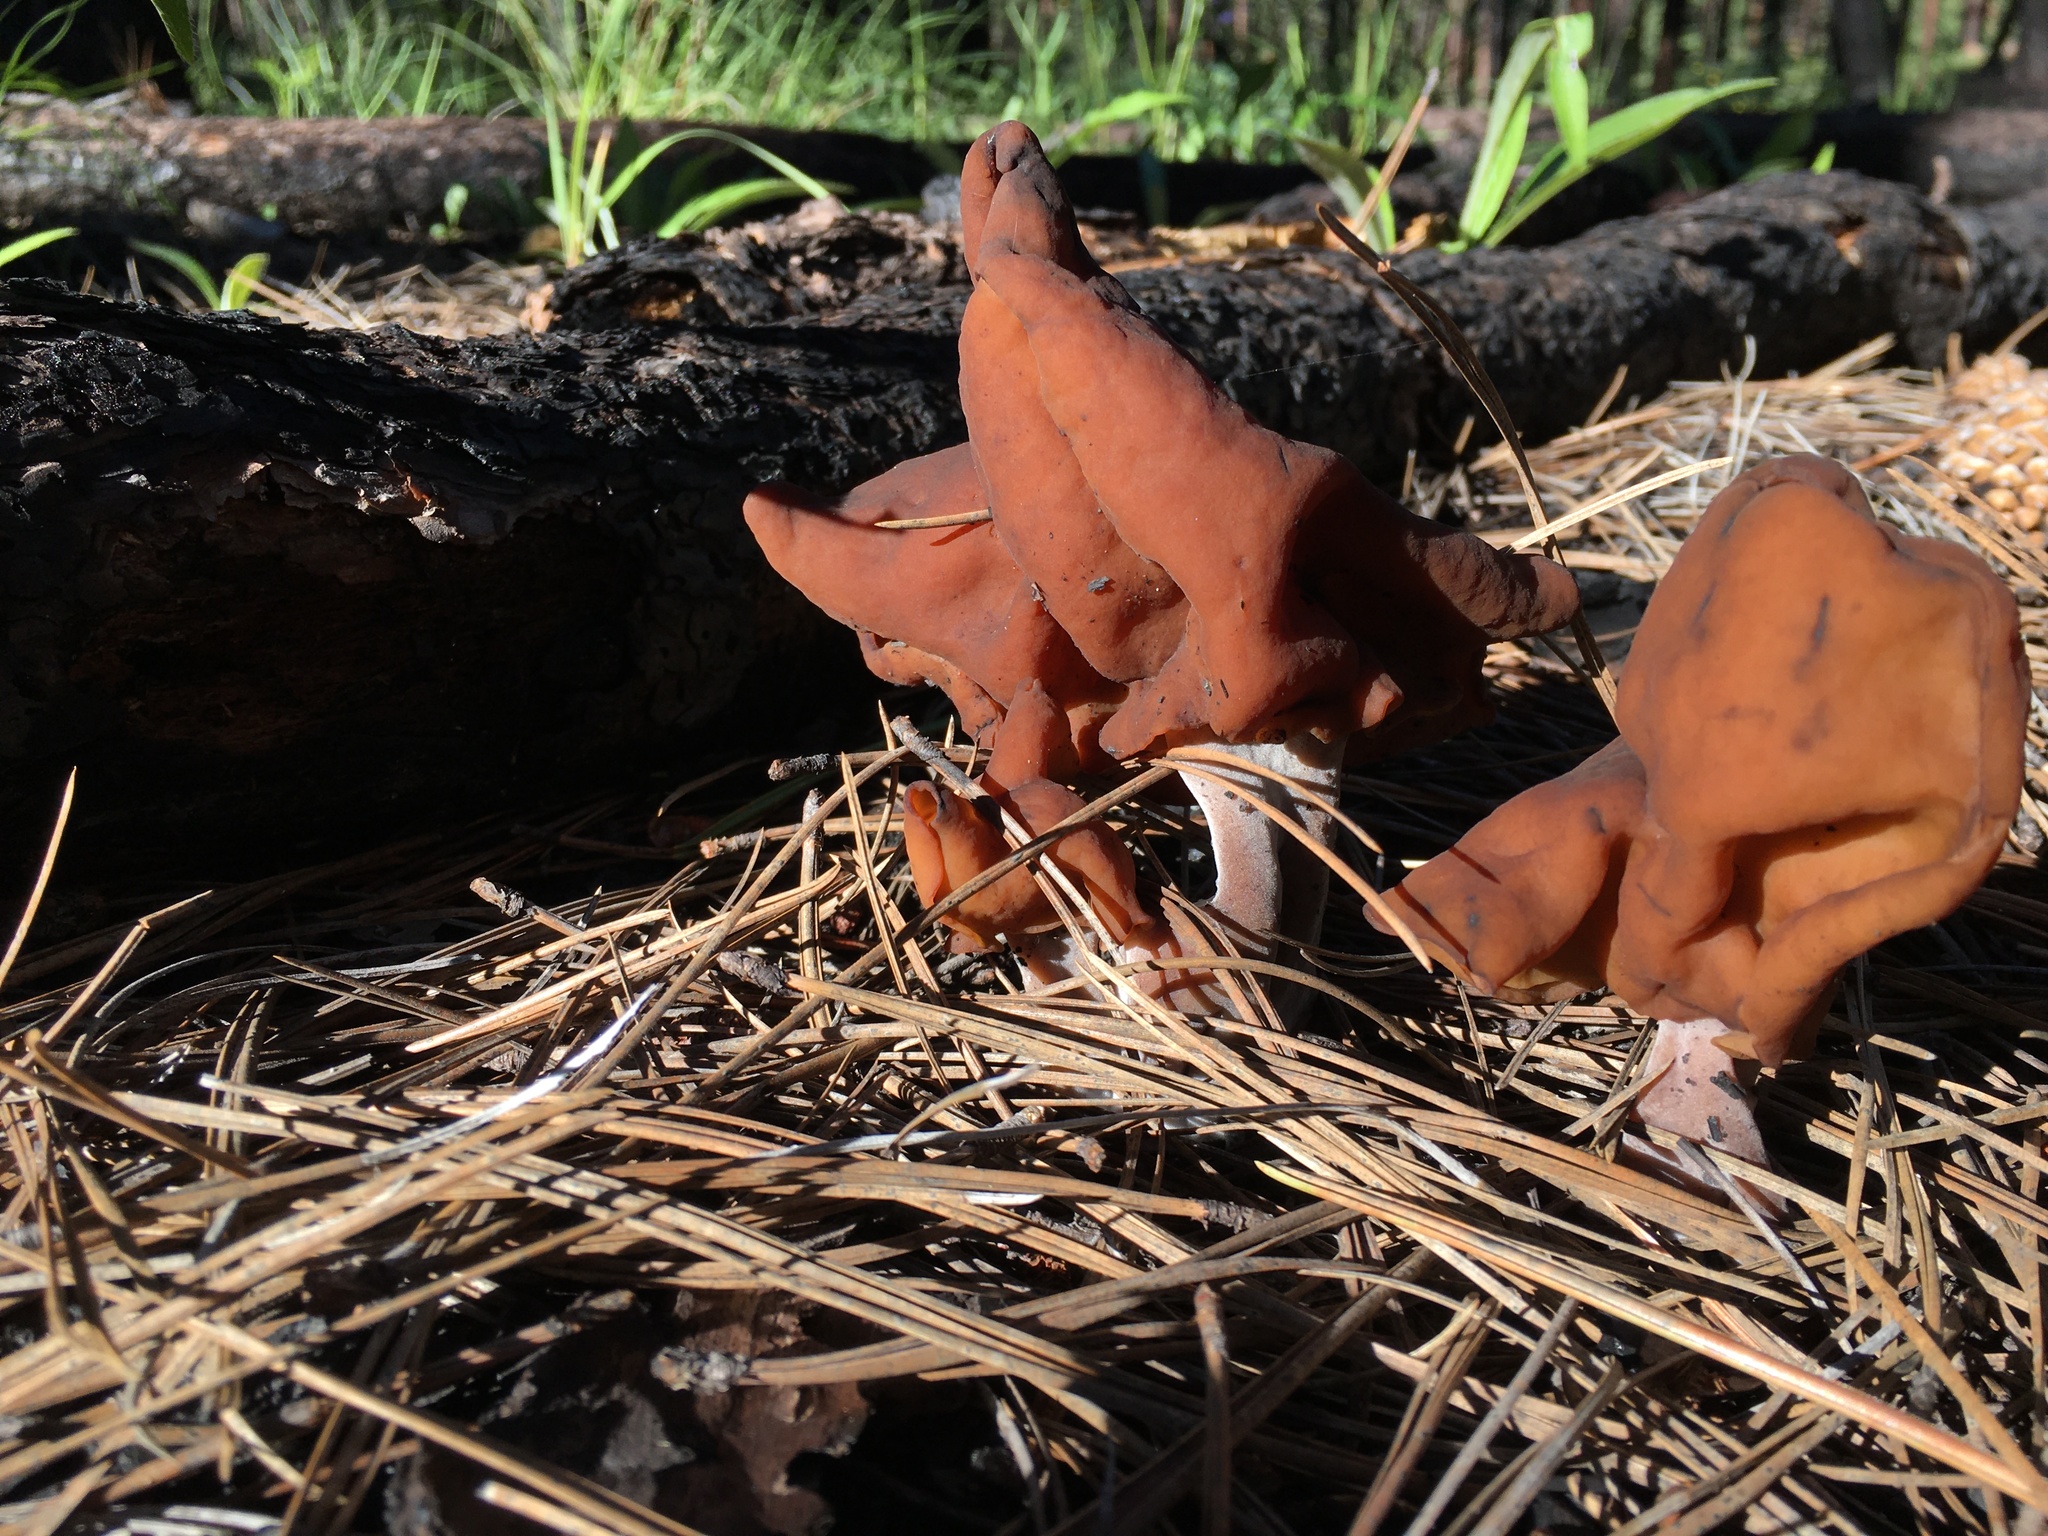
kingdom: Fungi
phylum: Ascomycota
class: Pezizomycetes
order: Pezizales
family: Discinaceae
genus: Gyromitra
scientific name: Gyromitra infula
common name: Pouched false morel
